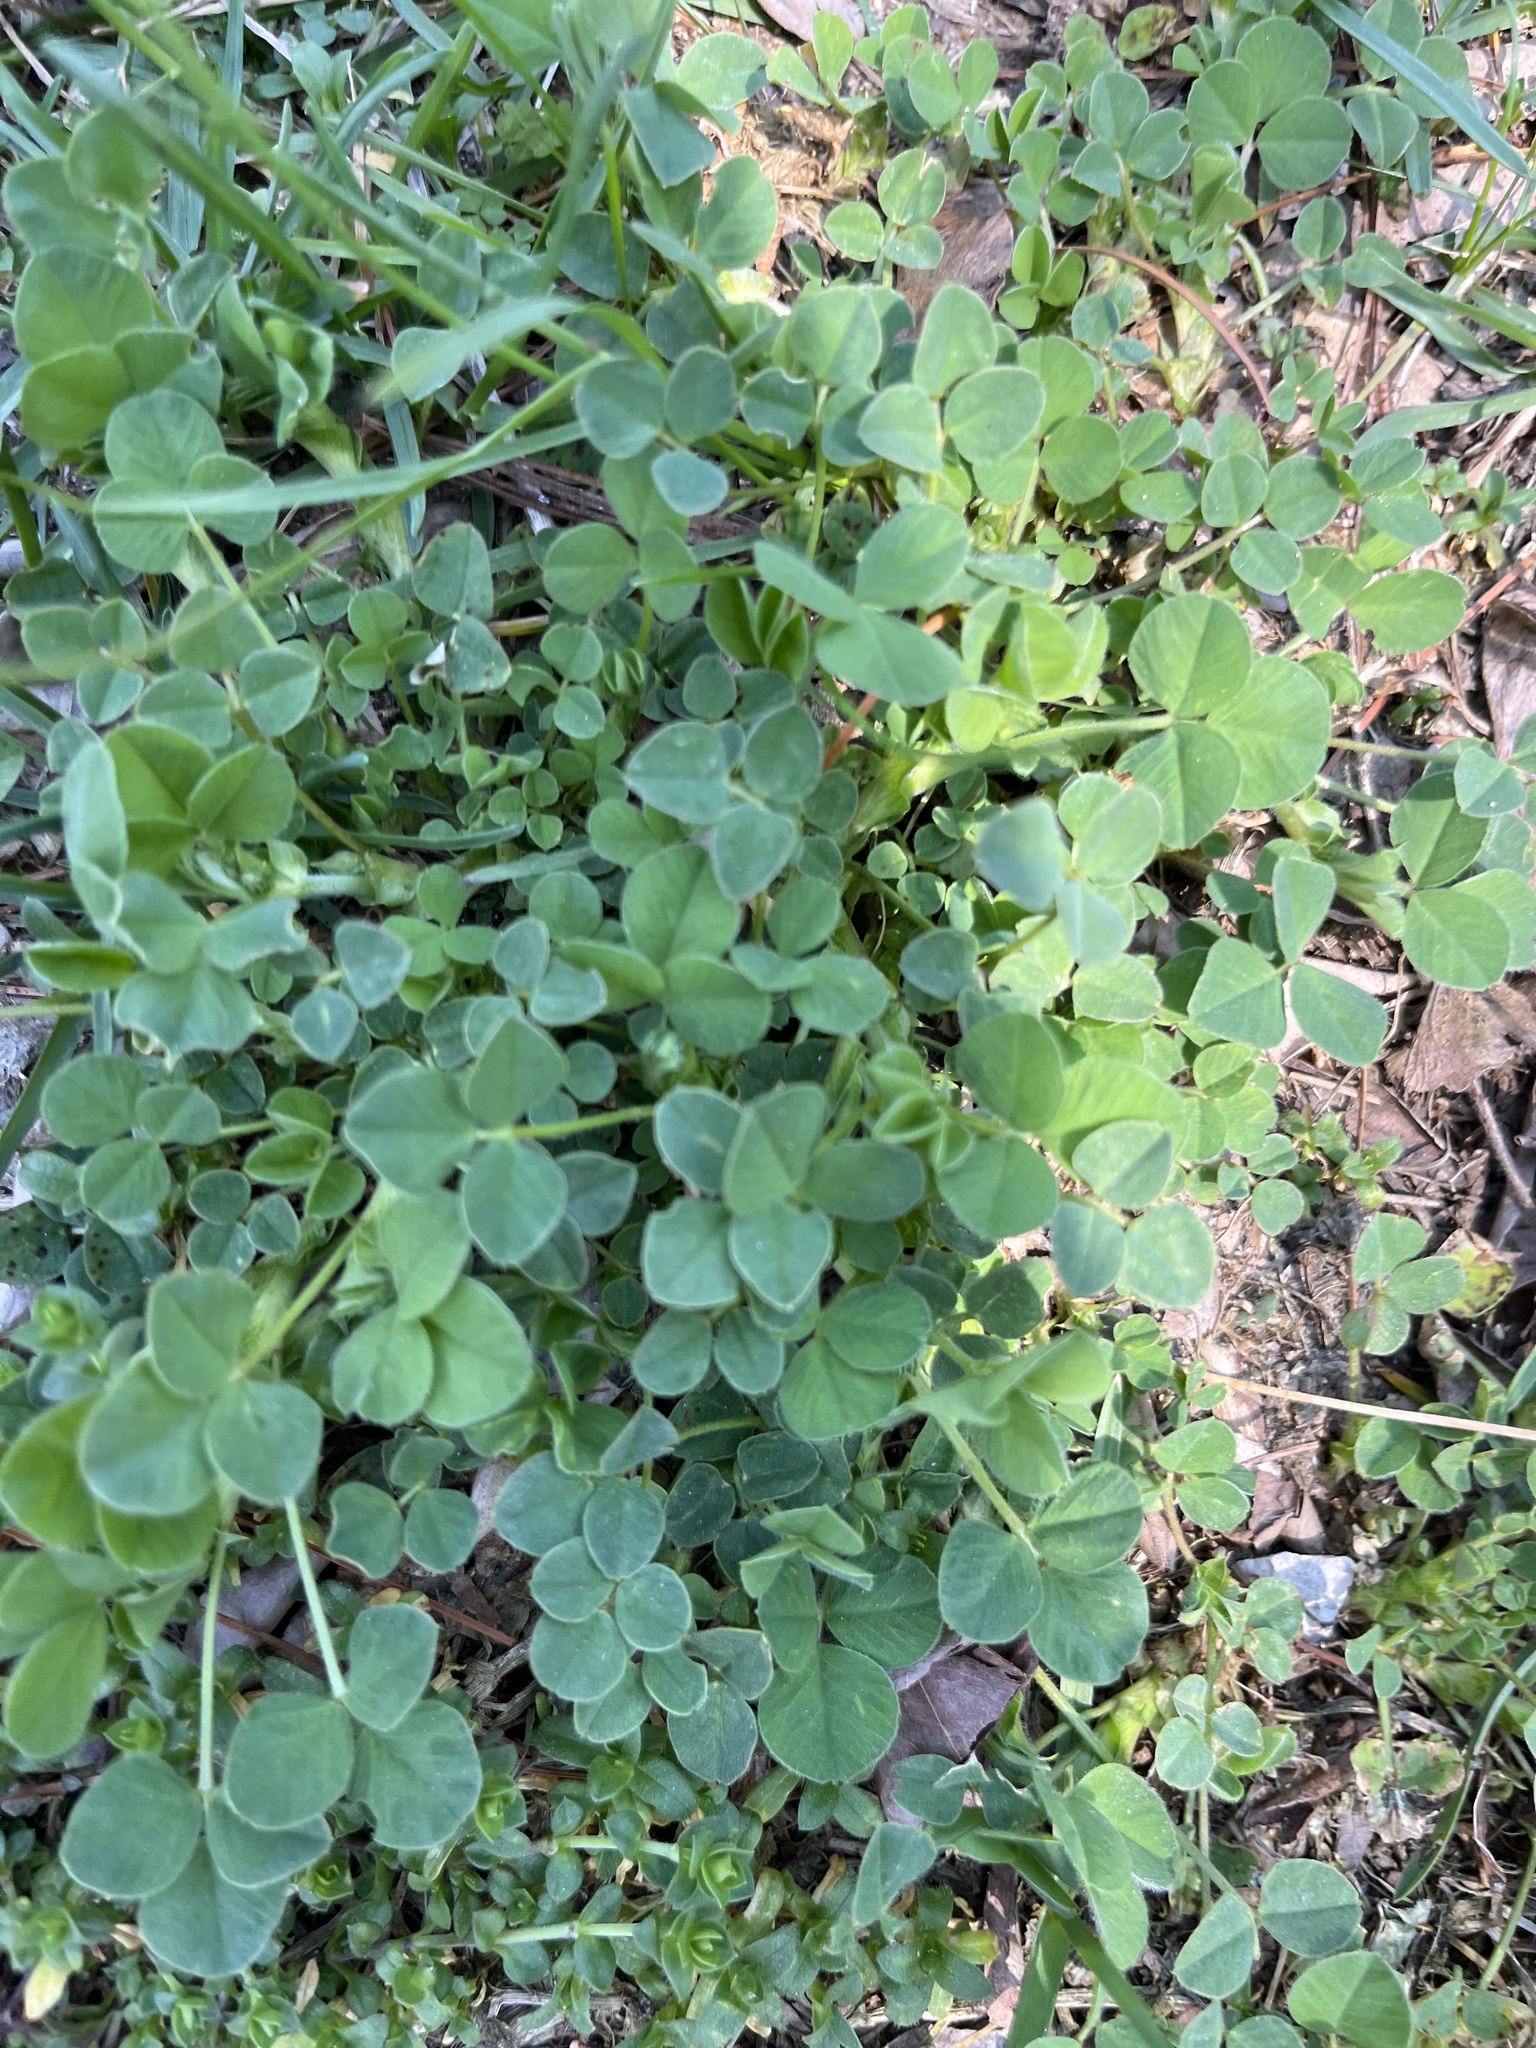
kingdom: Plantae
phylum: Tracheophyta
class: Magnoliopsida
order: Fabales
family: Fabaceae
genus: Medicago
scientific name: Medicago lupulina
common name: Black medick
